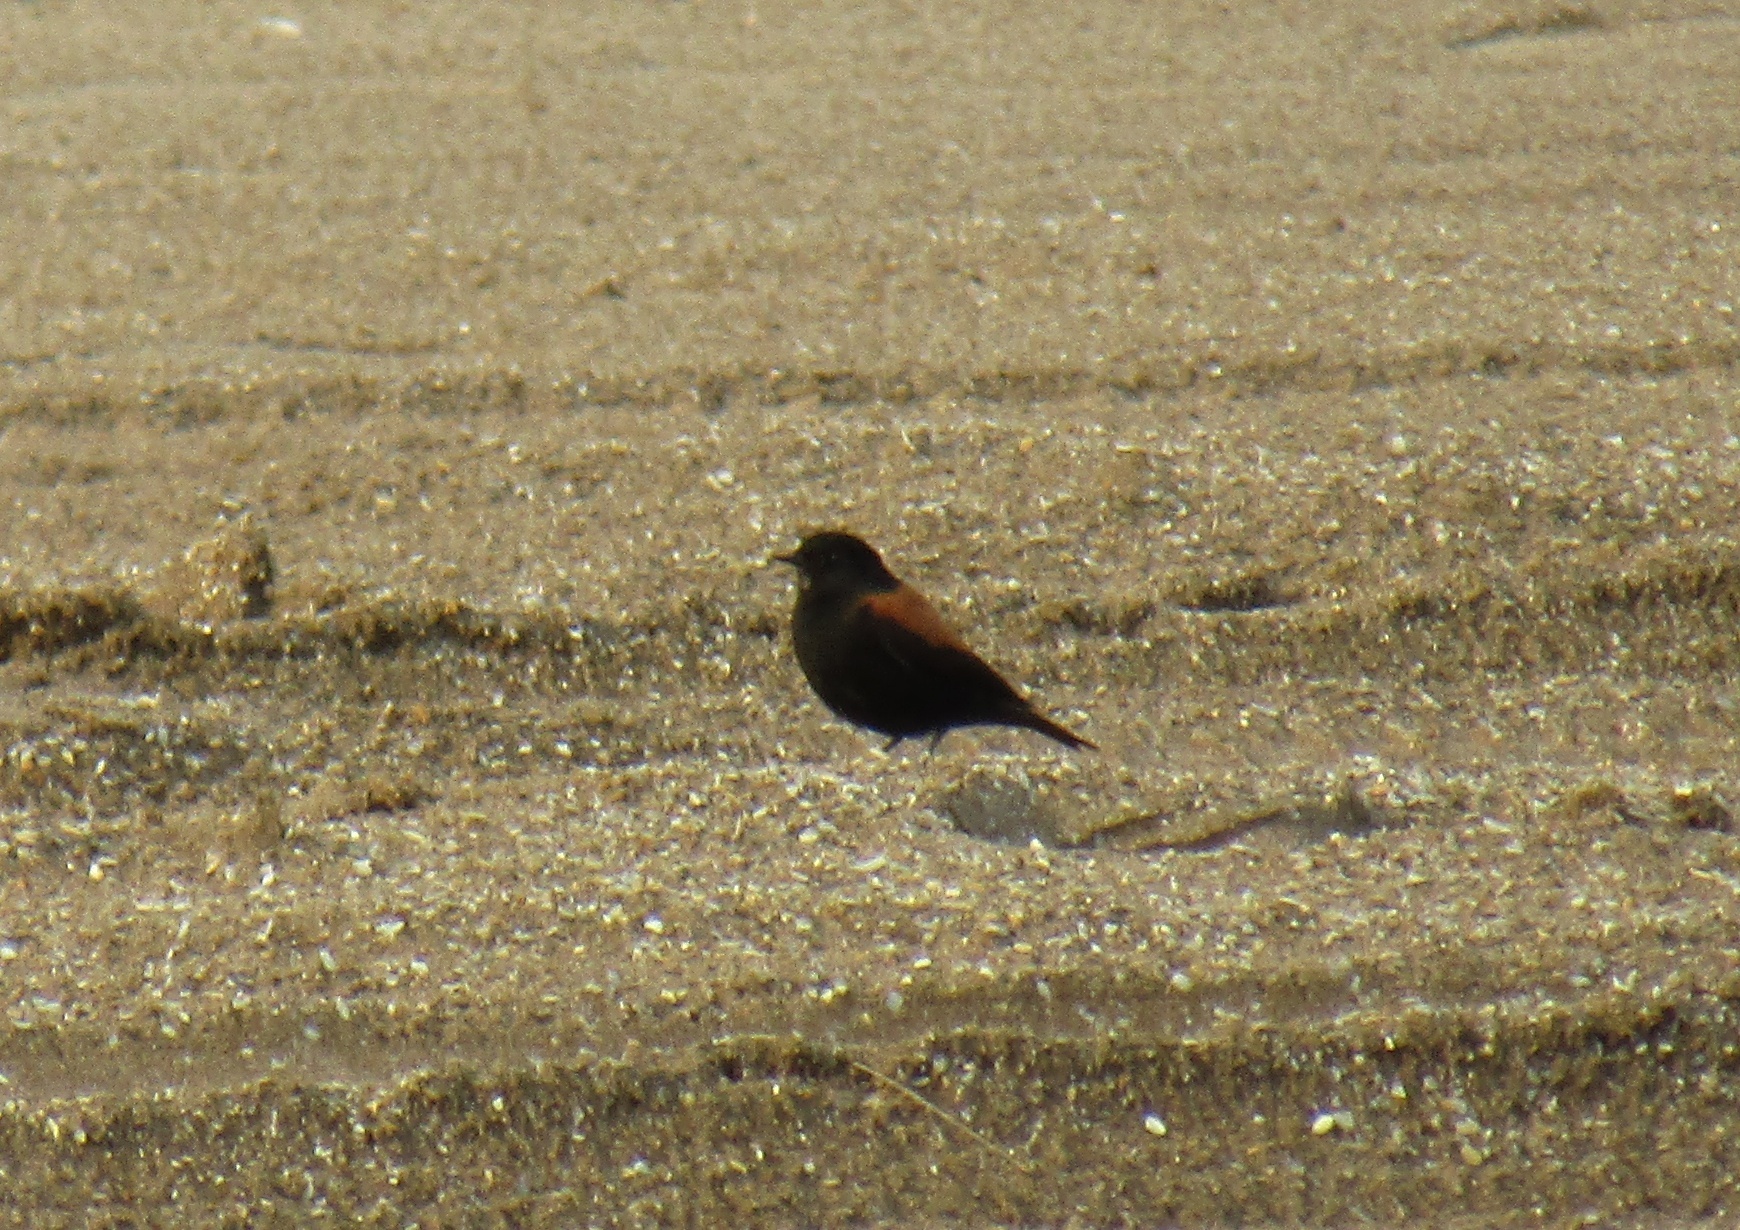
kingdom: Animalia
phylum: Chordata
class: Aves
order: Passeriformes
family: Tyrannidae
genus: Lessonia
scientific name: Lessonia rufa
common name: Austral negrito
